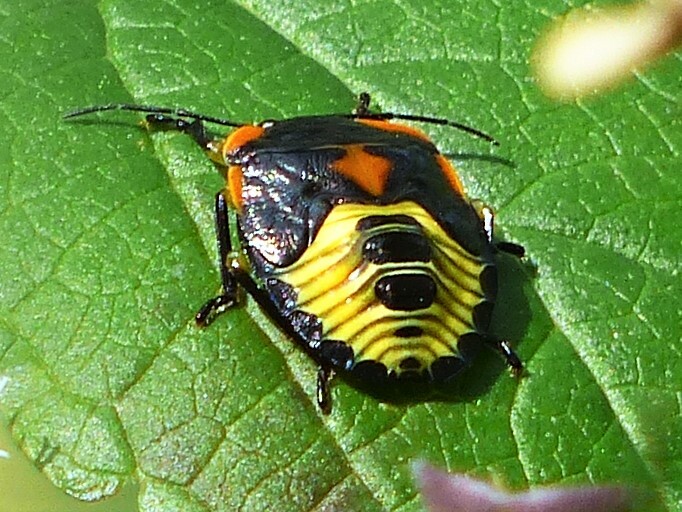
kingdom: Animalia
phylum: Arthropoda
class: Insecta
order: Hemiptera
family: Pentatomidae
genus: Chinavia
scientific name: Chinavia hilaris
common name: Green stink bug
